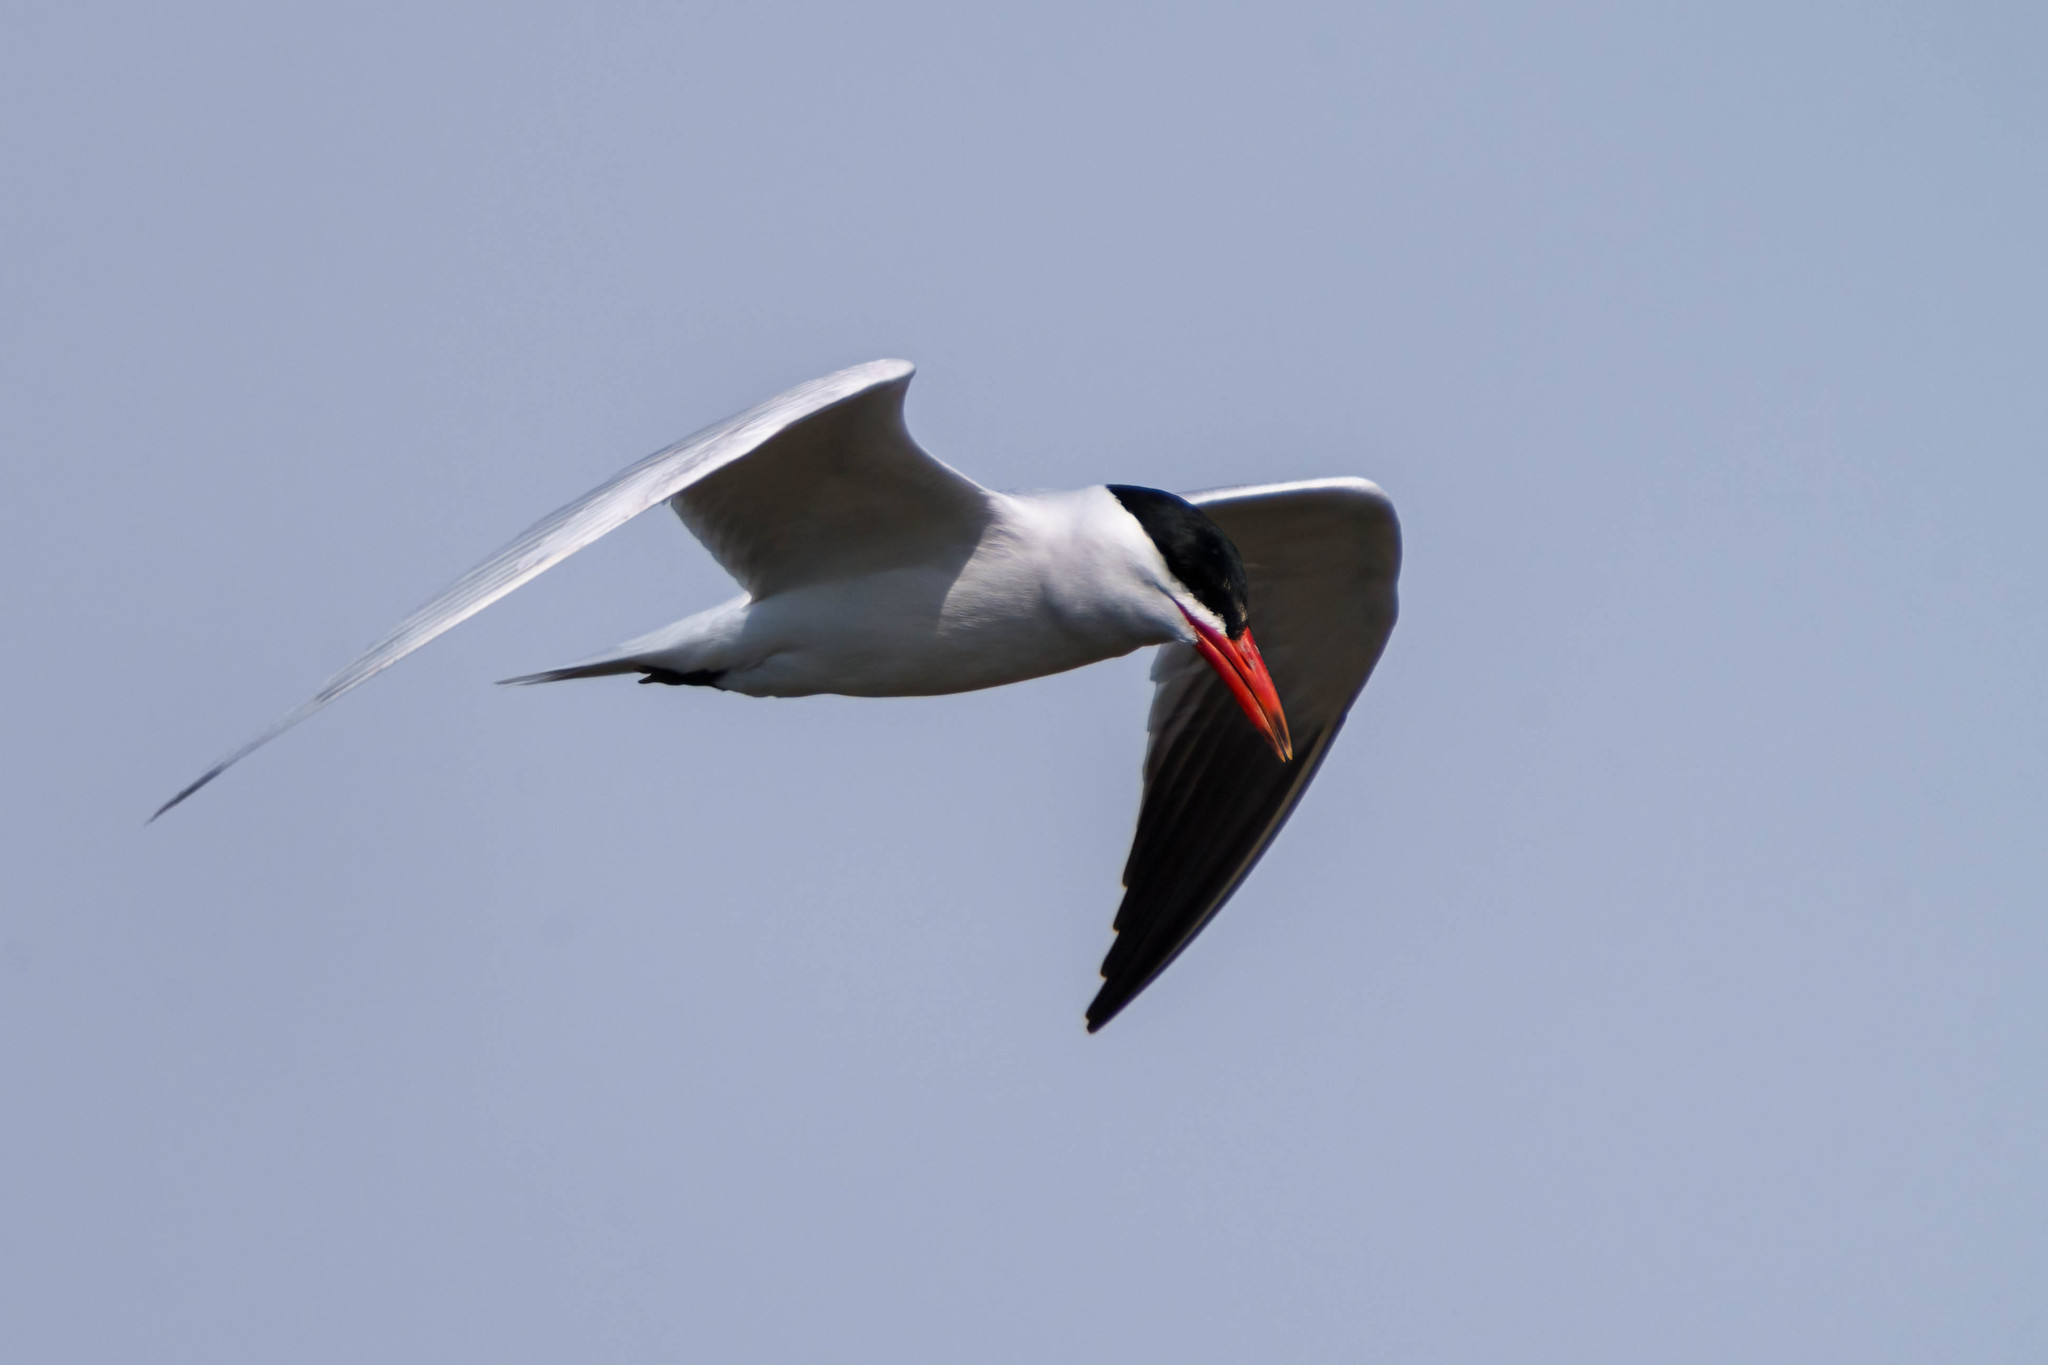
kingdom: Animalia
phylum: Chordata
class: Aves
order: Charadriiformes
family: Laridae
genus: Hydroprogne
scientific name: Hydroprogne caspia
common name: Caspian tern
